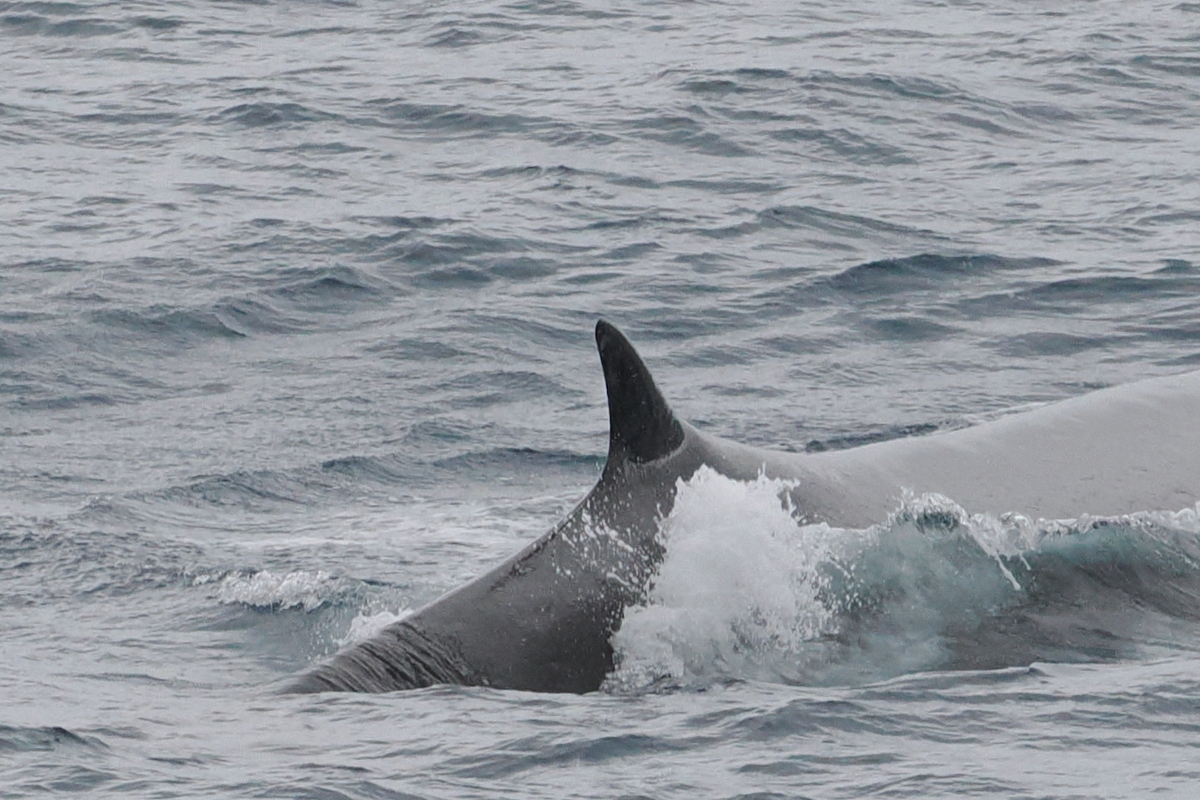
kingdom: Animalia
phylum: Chordata
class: Mammalia
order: Cetacea
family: Balaenopteridae
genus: Balaenoptera
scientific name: Balaenoptera physalus
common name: Fin whale
